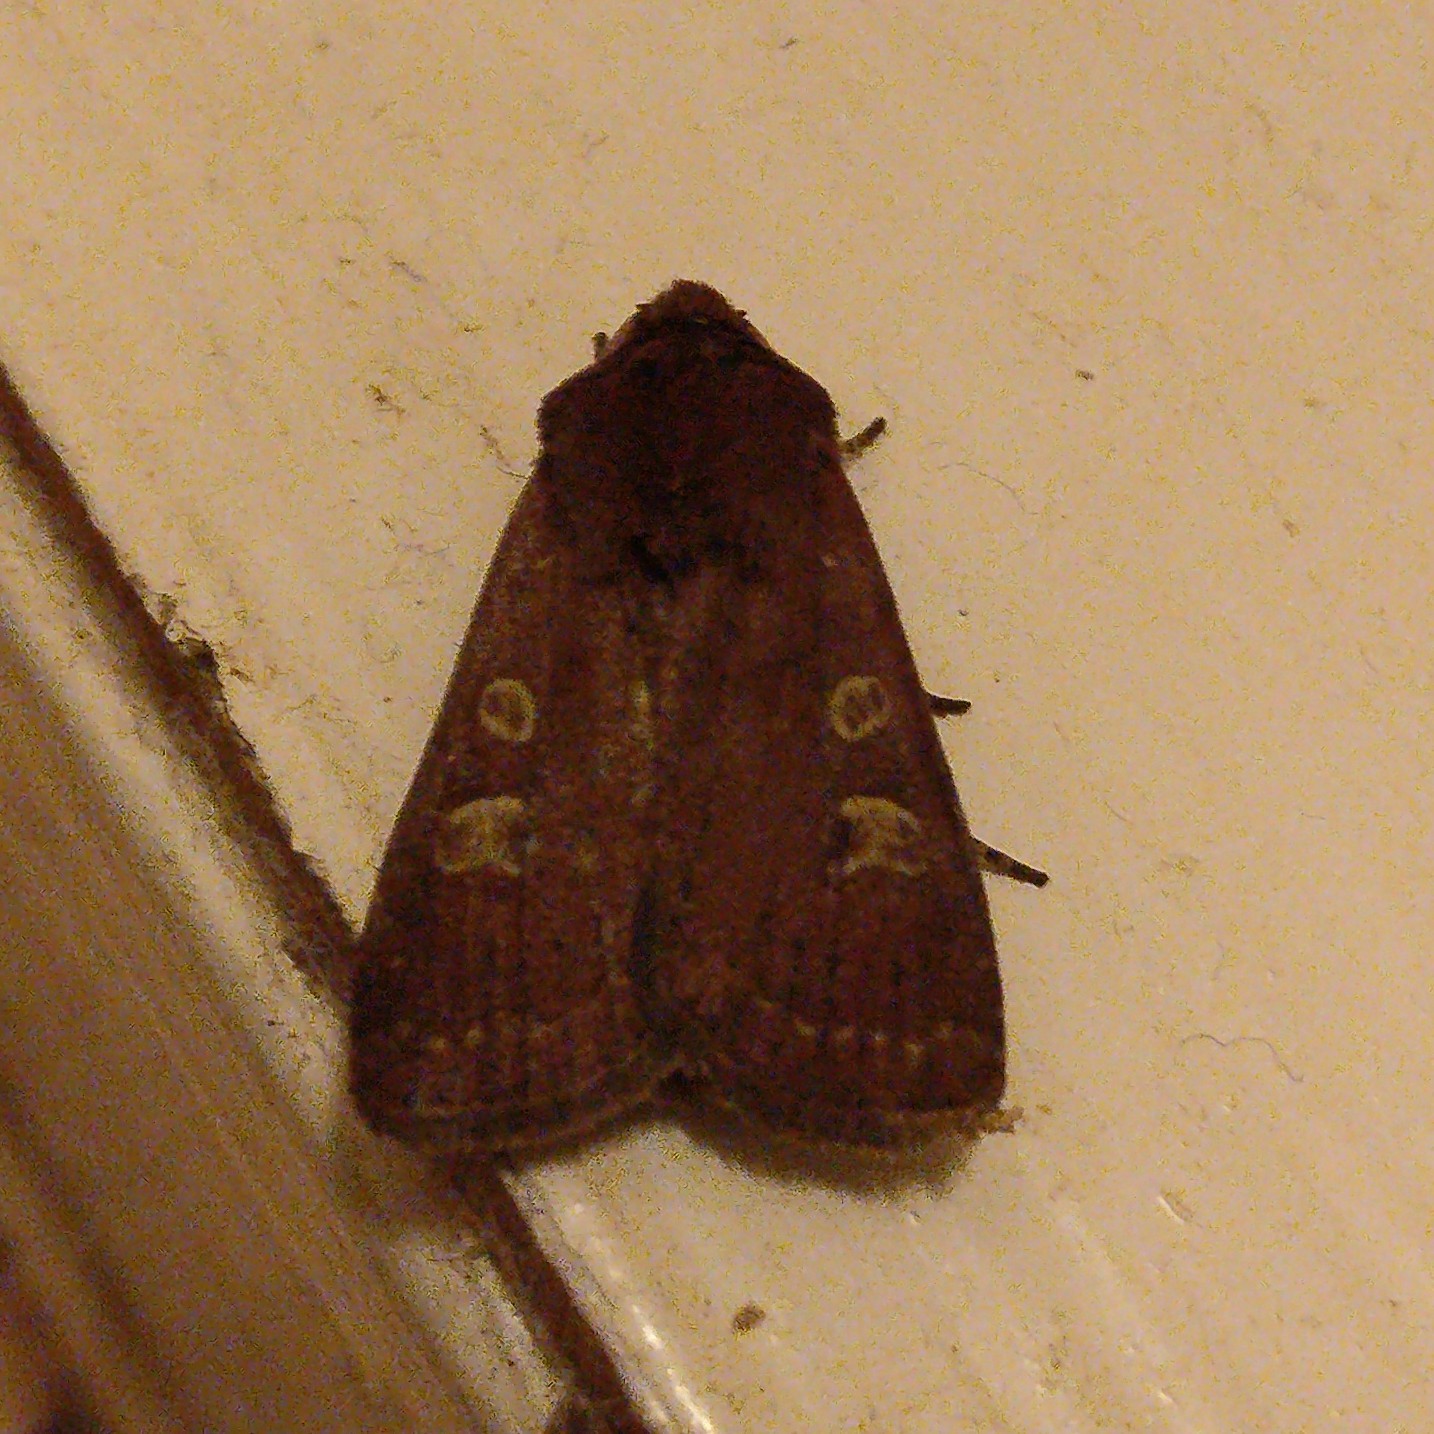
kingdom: Animalia
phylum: Arthropoda
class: Insecta
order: Lepidoptera
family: Noctuidae
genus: Xestia
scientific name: Xestia xanthographa
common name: Square-spot rustic
